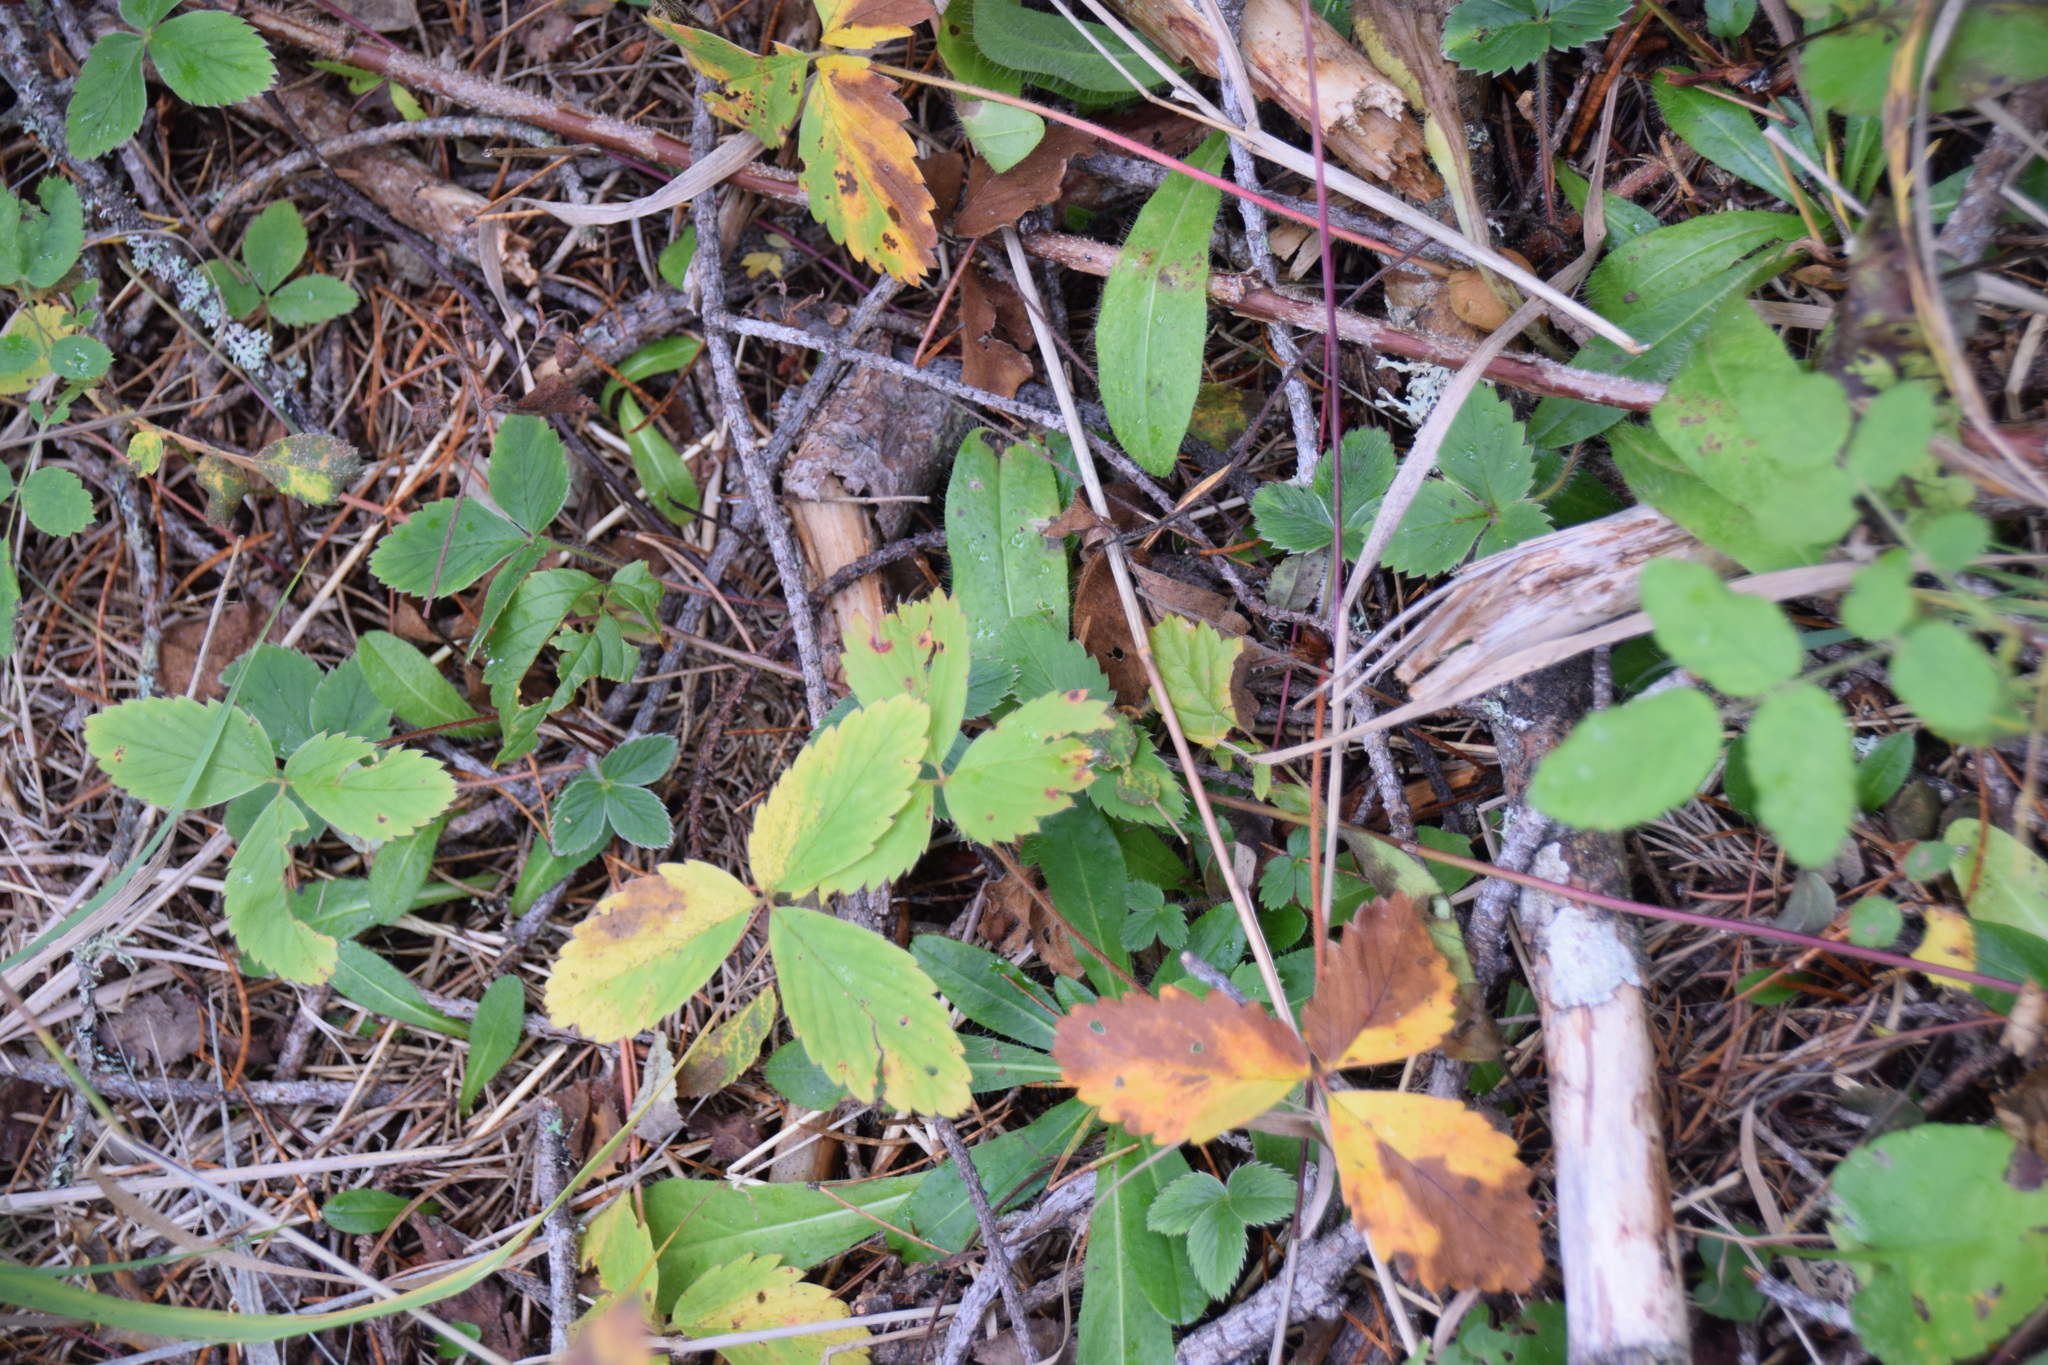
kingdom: Plantae
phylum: Tracheophyta
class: Magnoliopsida
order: Rosales
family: Rosaceae
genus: Fragaria
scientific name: Fragaria virginiana
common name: Thickleaved wild strawberry
